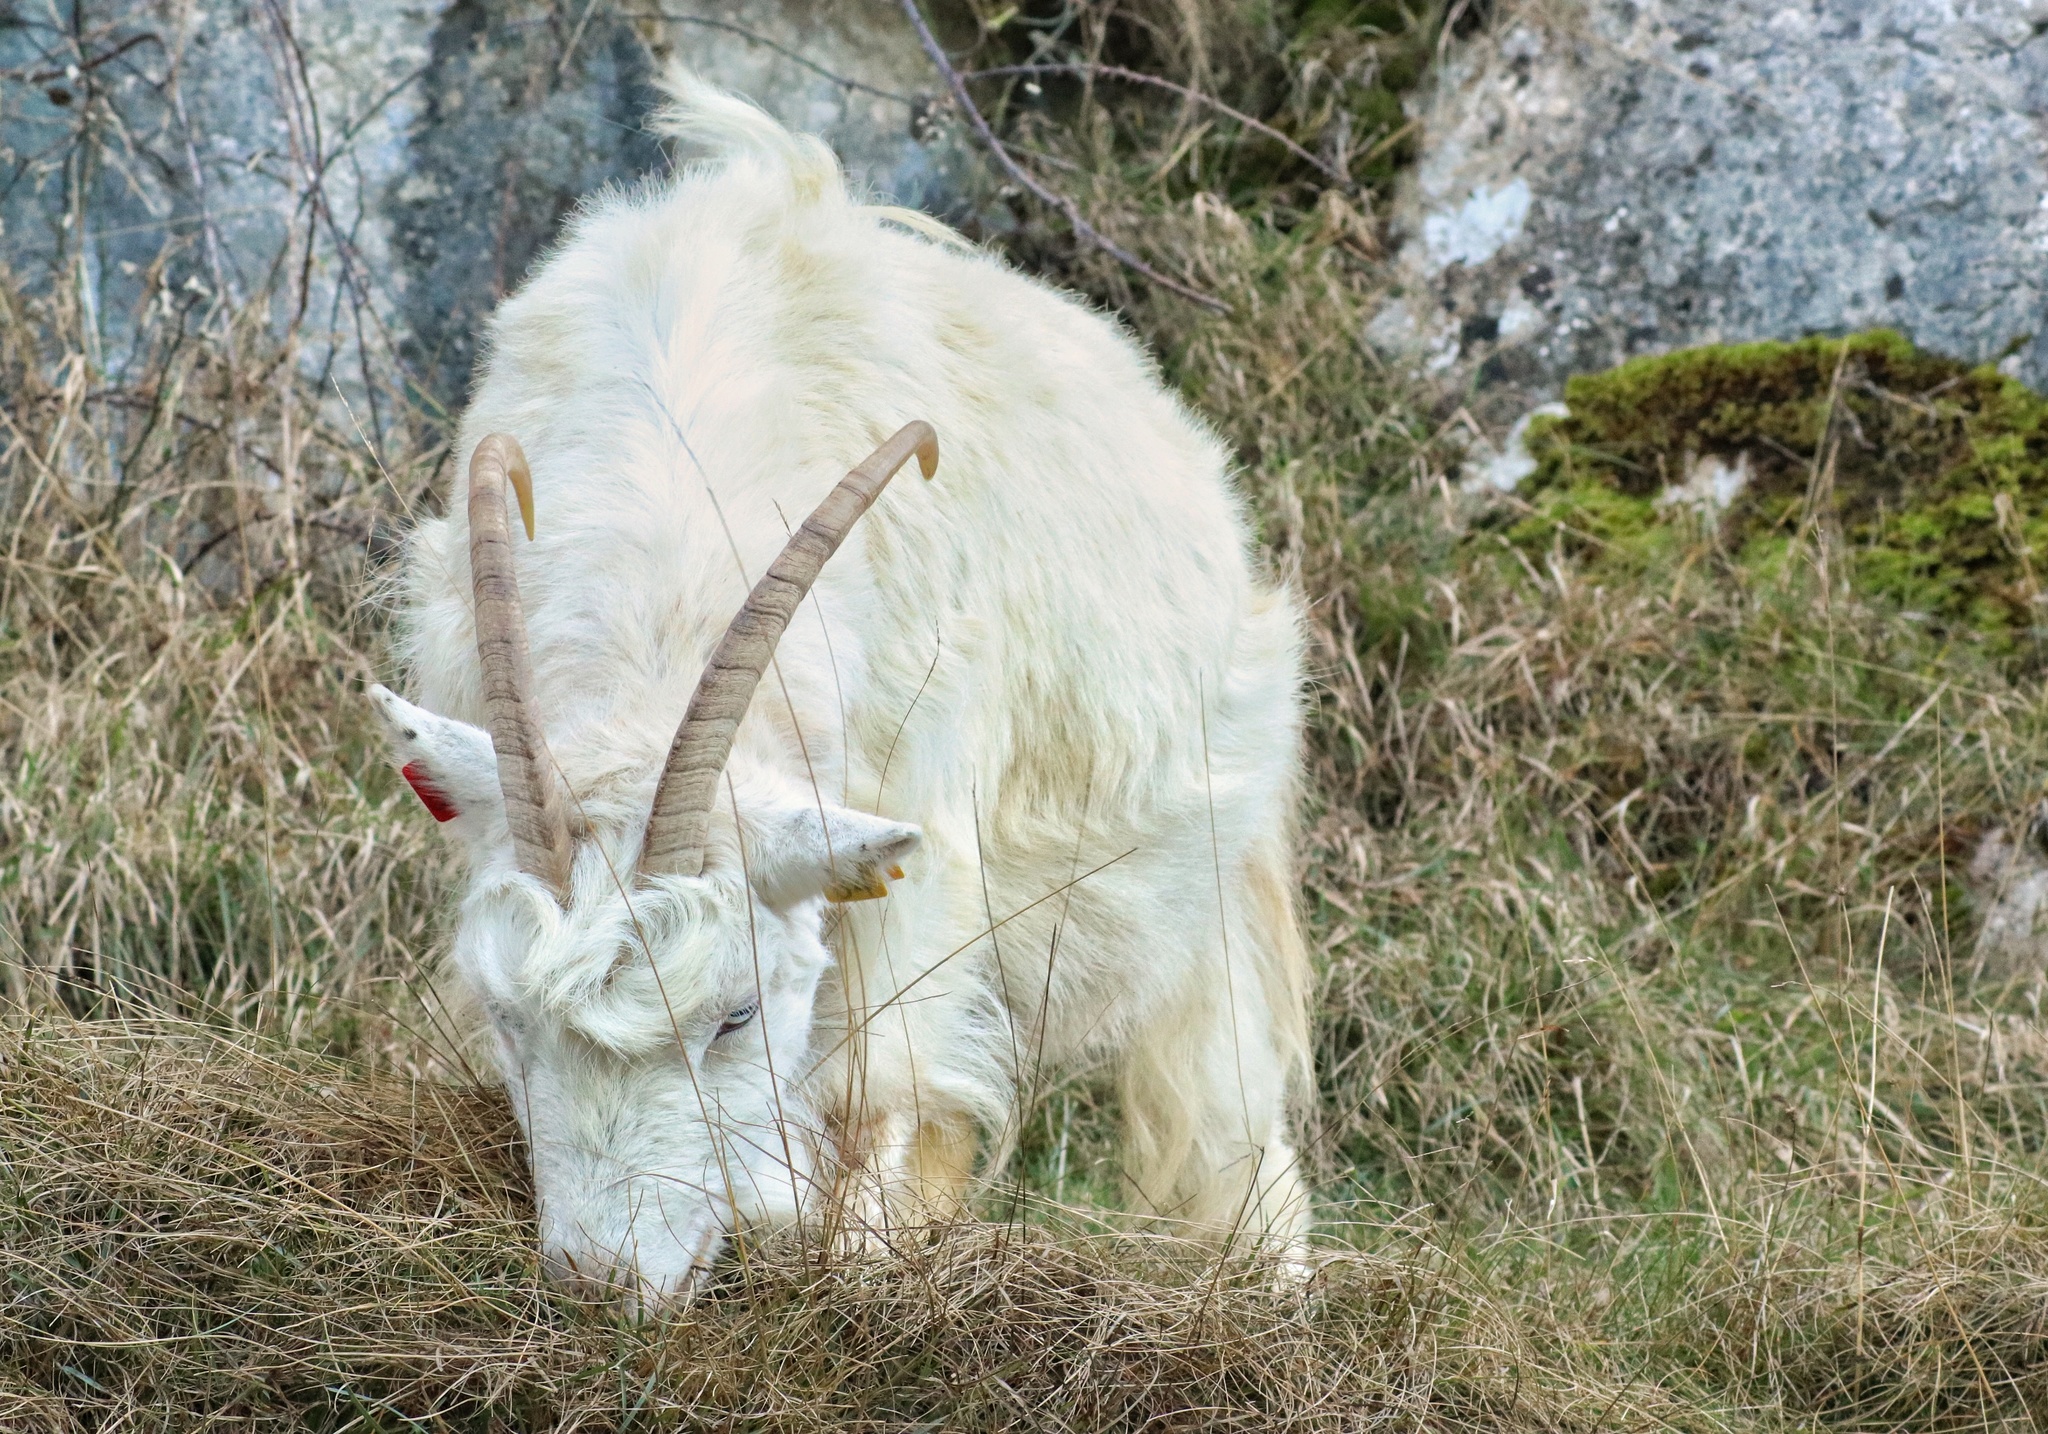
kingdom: Animalia
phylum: Chordata
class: Mammalia
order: Artiodactyla
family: Bovidae
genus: Capra
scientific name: Capra hircus
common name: Domestic goat
